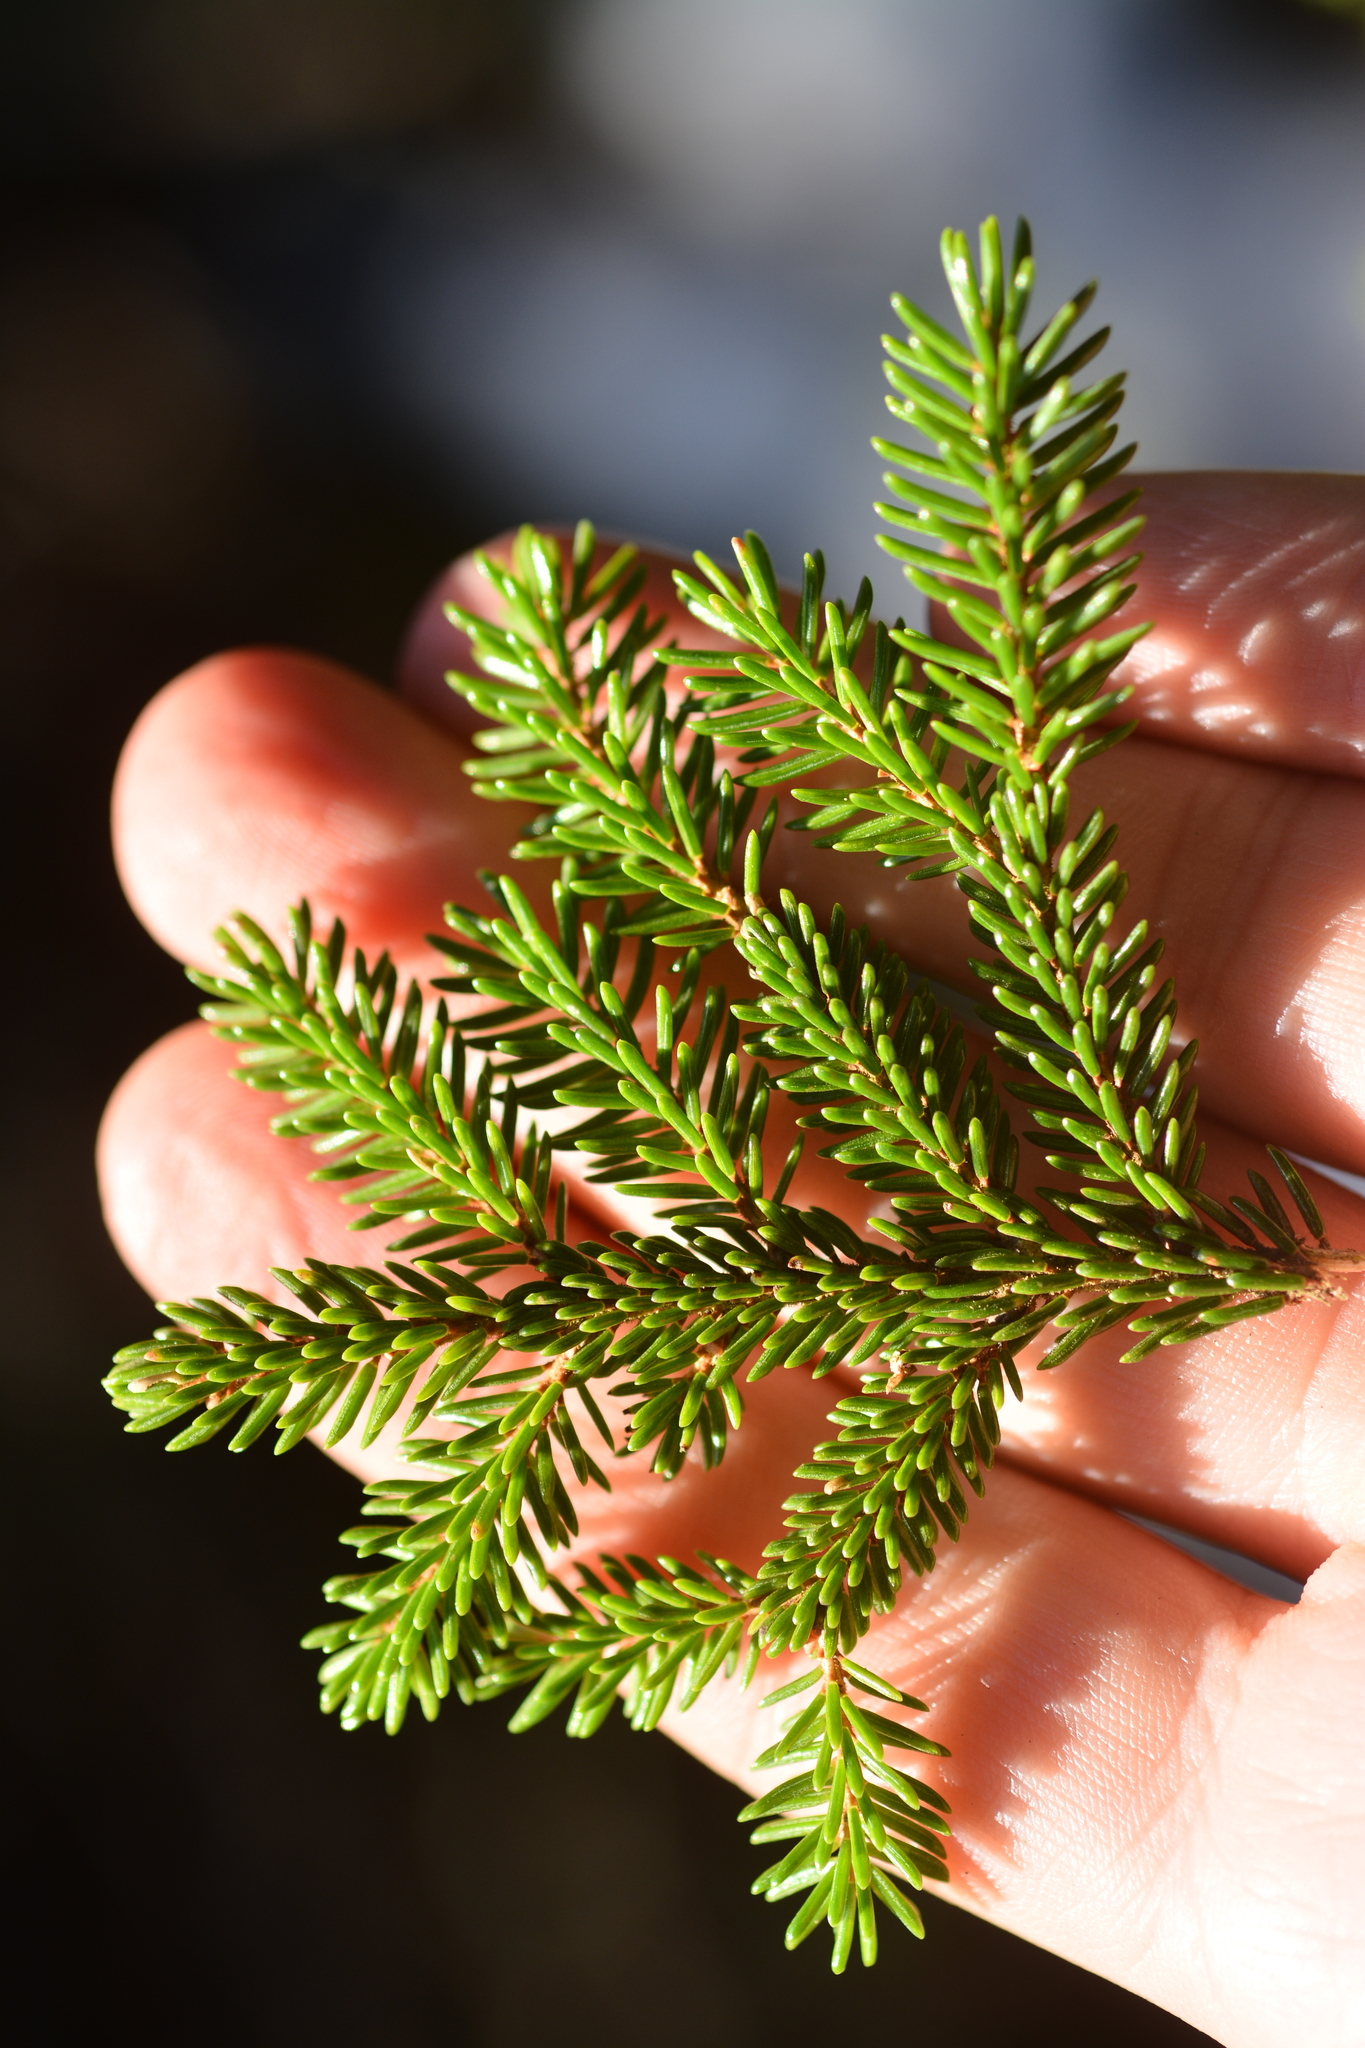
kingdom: Plantae
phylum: Tracheophyta
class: Pinopsida
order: Pinales
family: Pinaceae
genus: Picea
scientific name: Picea orientalis
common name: Oriental spruce
